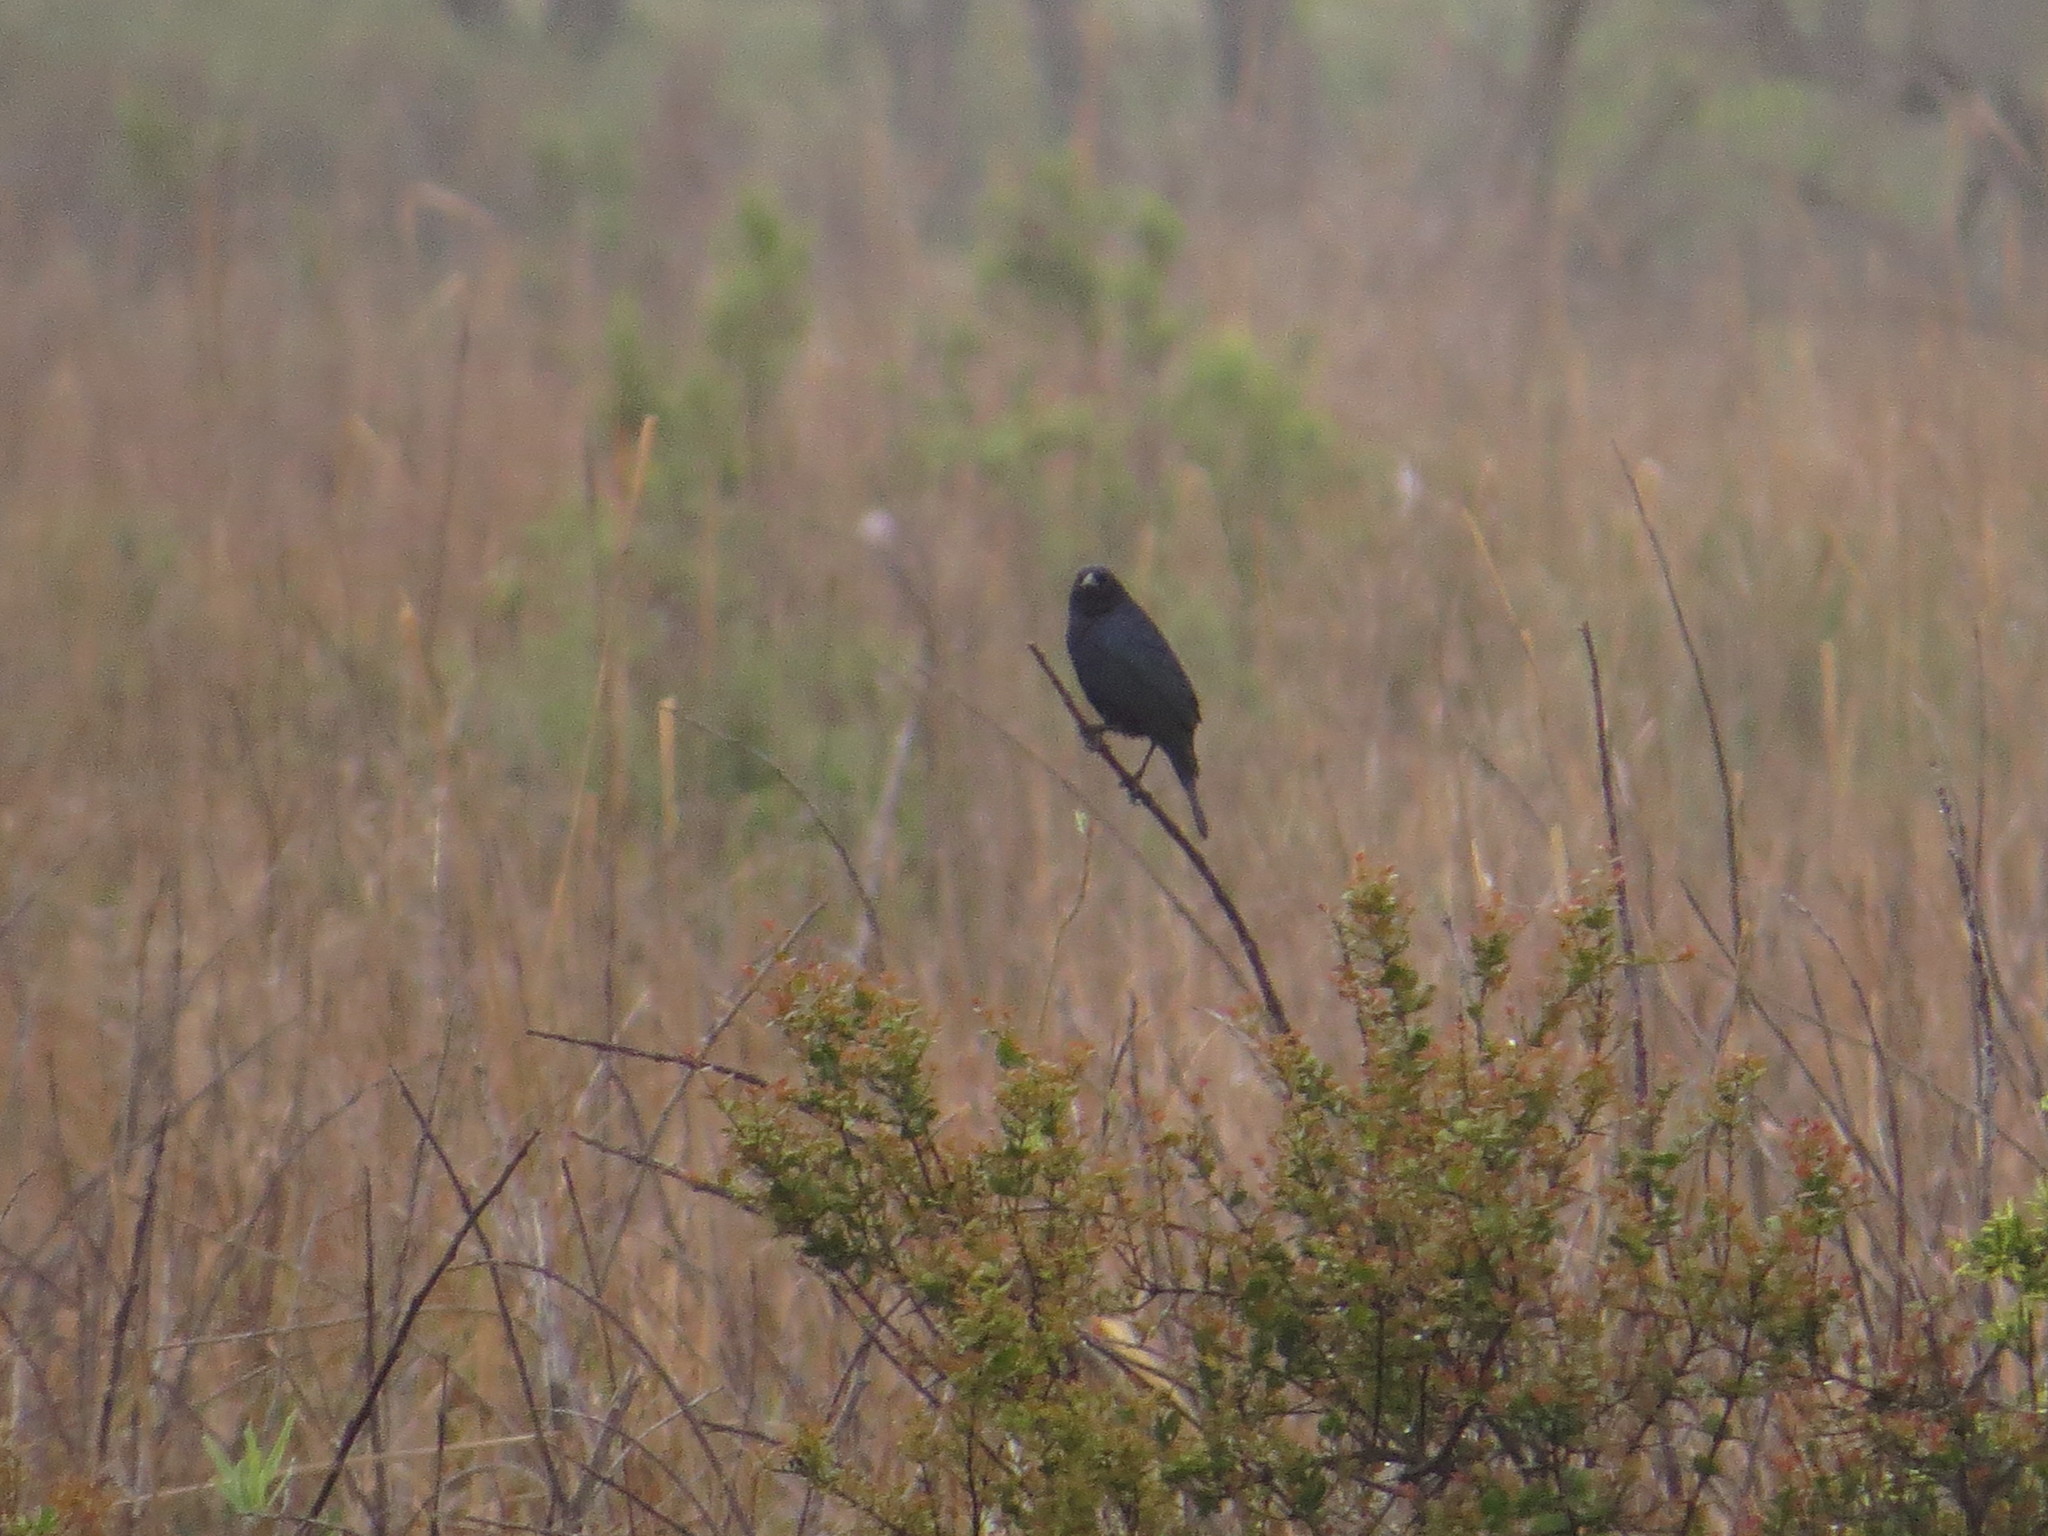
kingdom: Animalia
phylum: Chordata
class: Aves
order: Passeriformes
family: Icteridae
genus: Chrysomus
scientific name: Chrysomus ruficapillus
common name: Chestnut-capped blackbird
